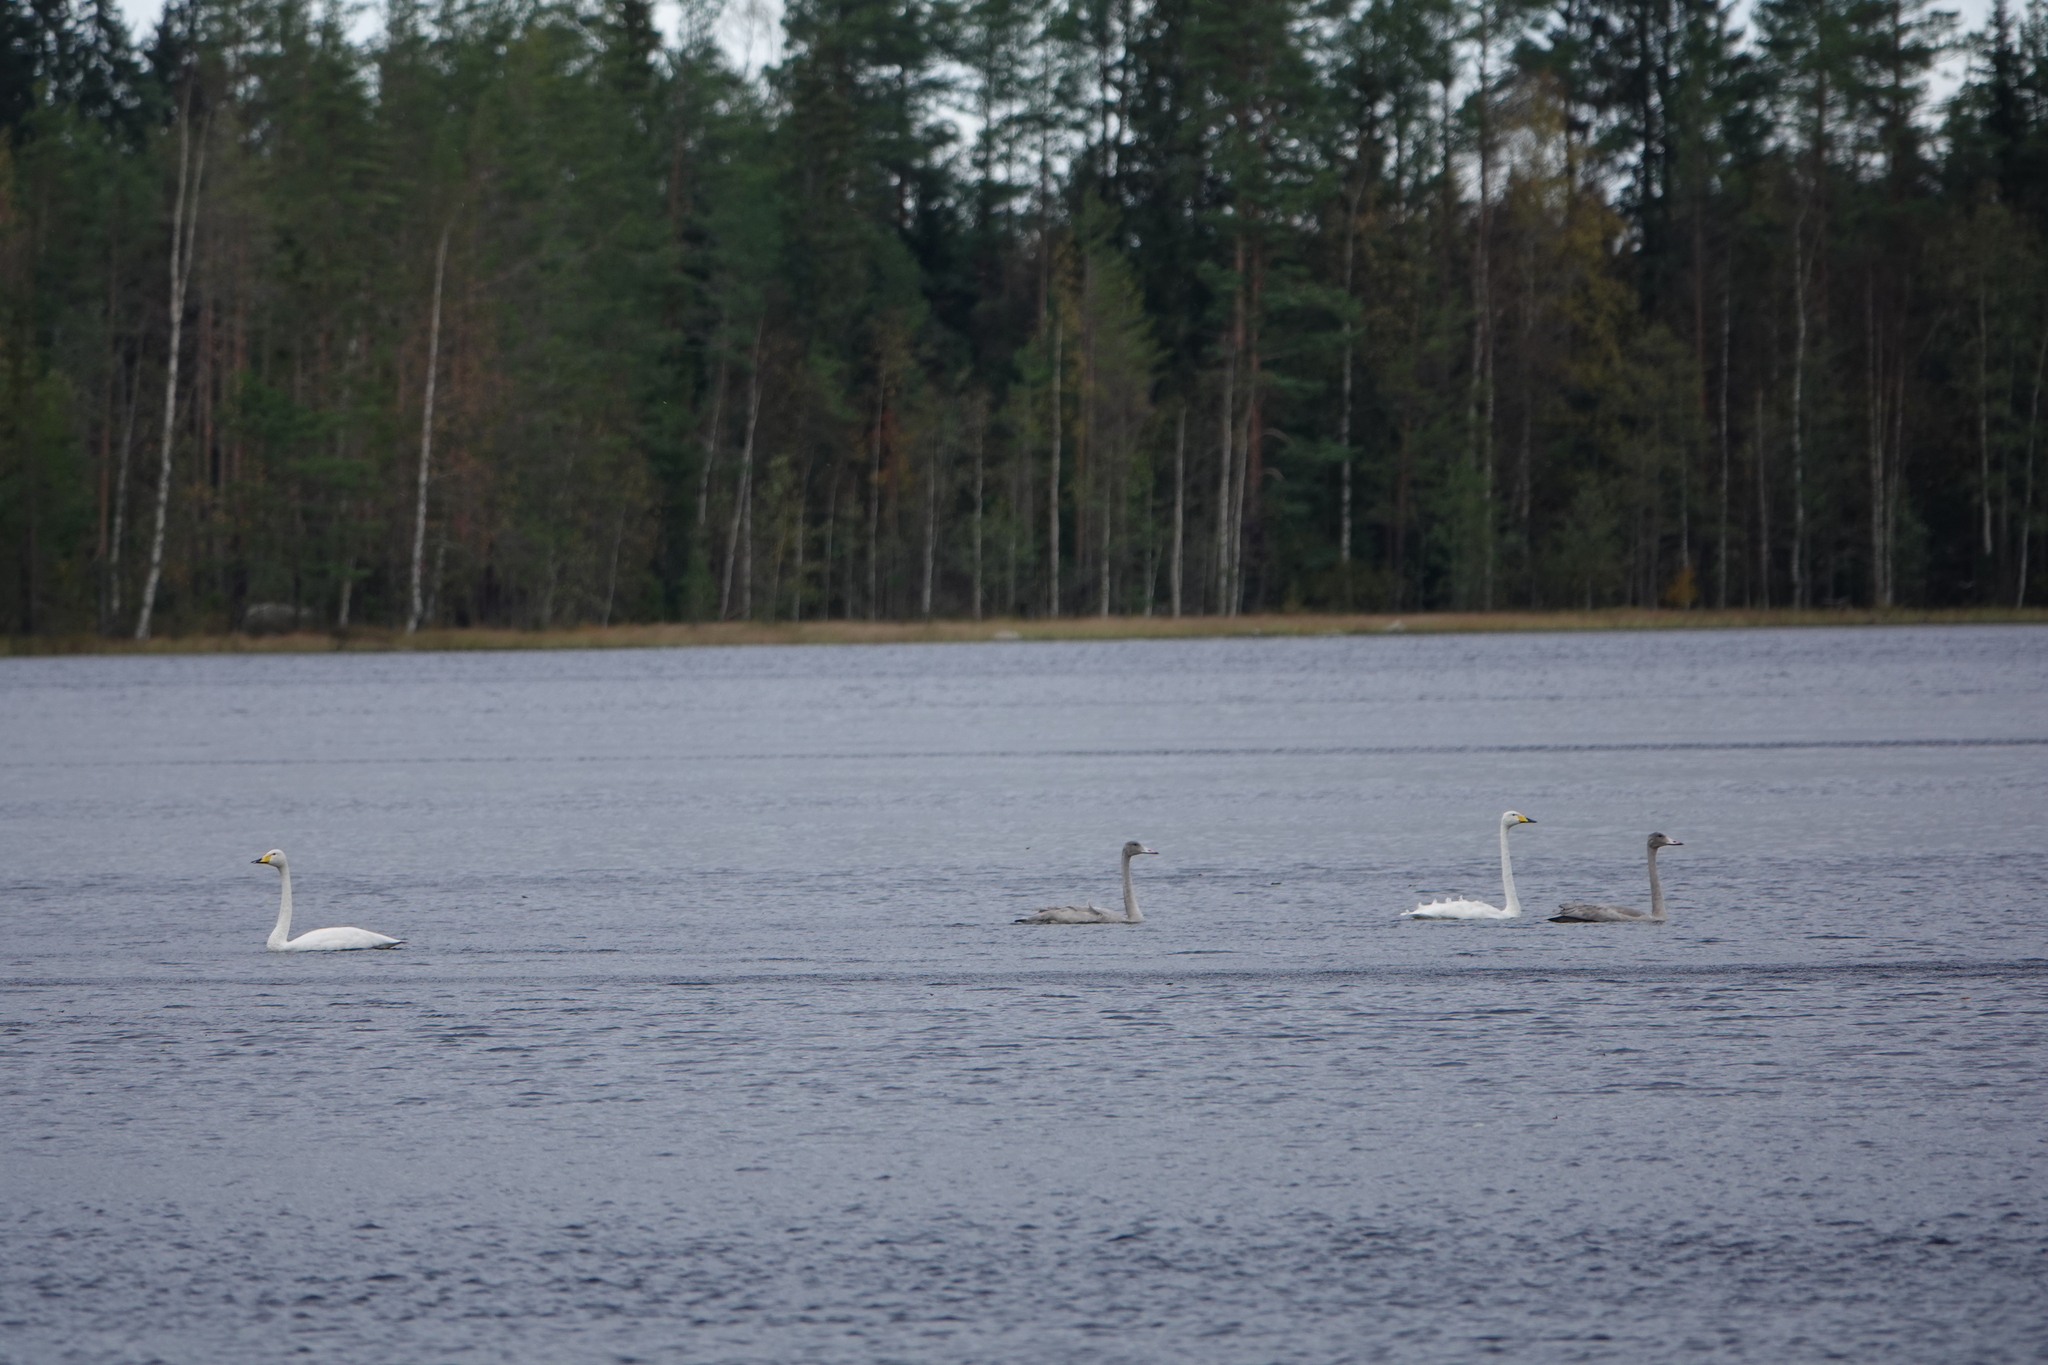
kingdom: Animalia
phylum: Chordata
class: Aves
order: Anseriformes
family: Anatidae
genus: Cygnus
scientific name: Cygnus cygnus
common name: Whooper swan
